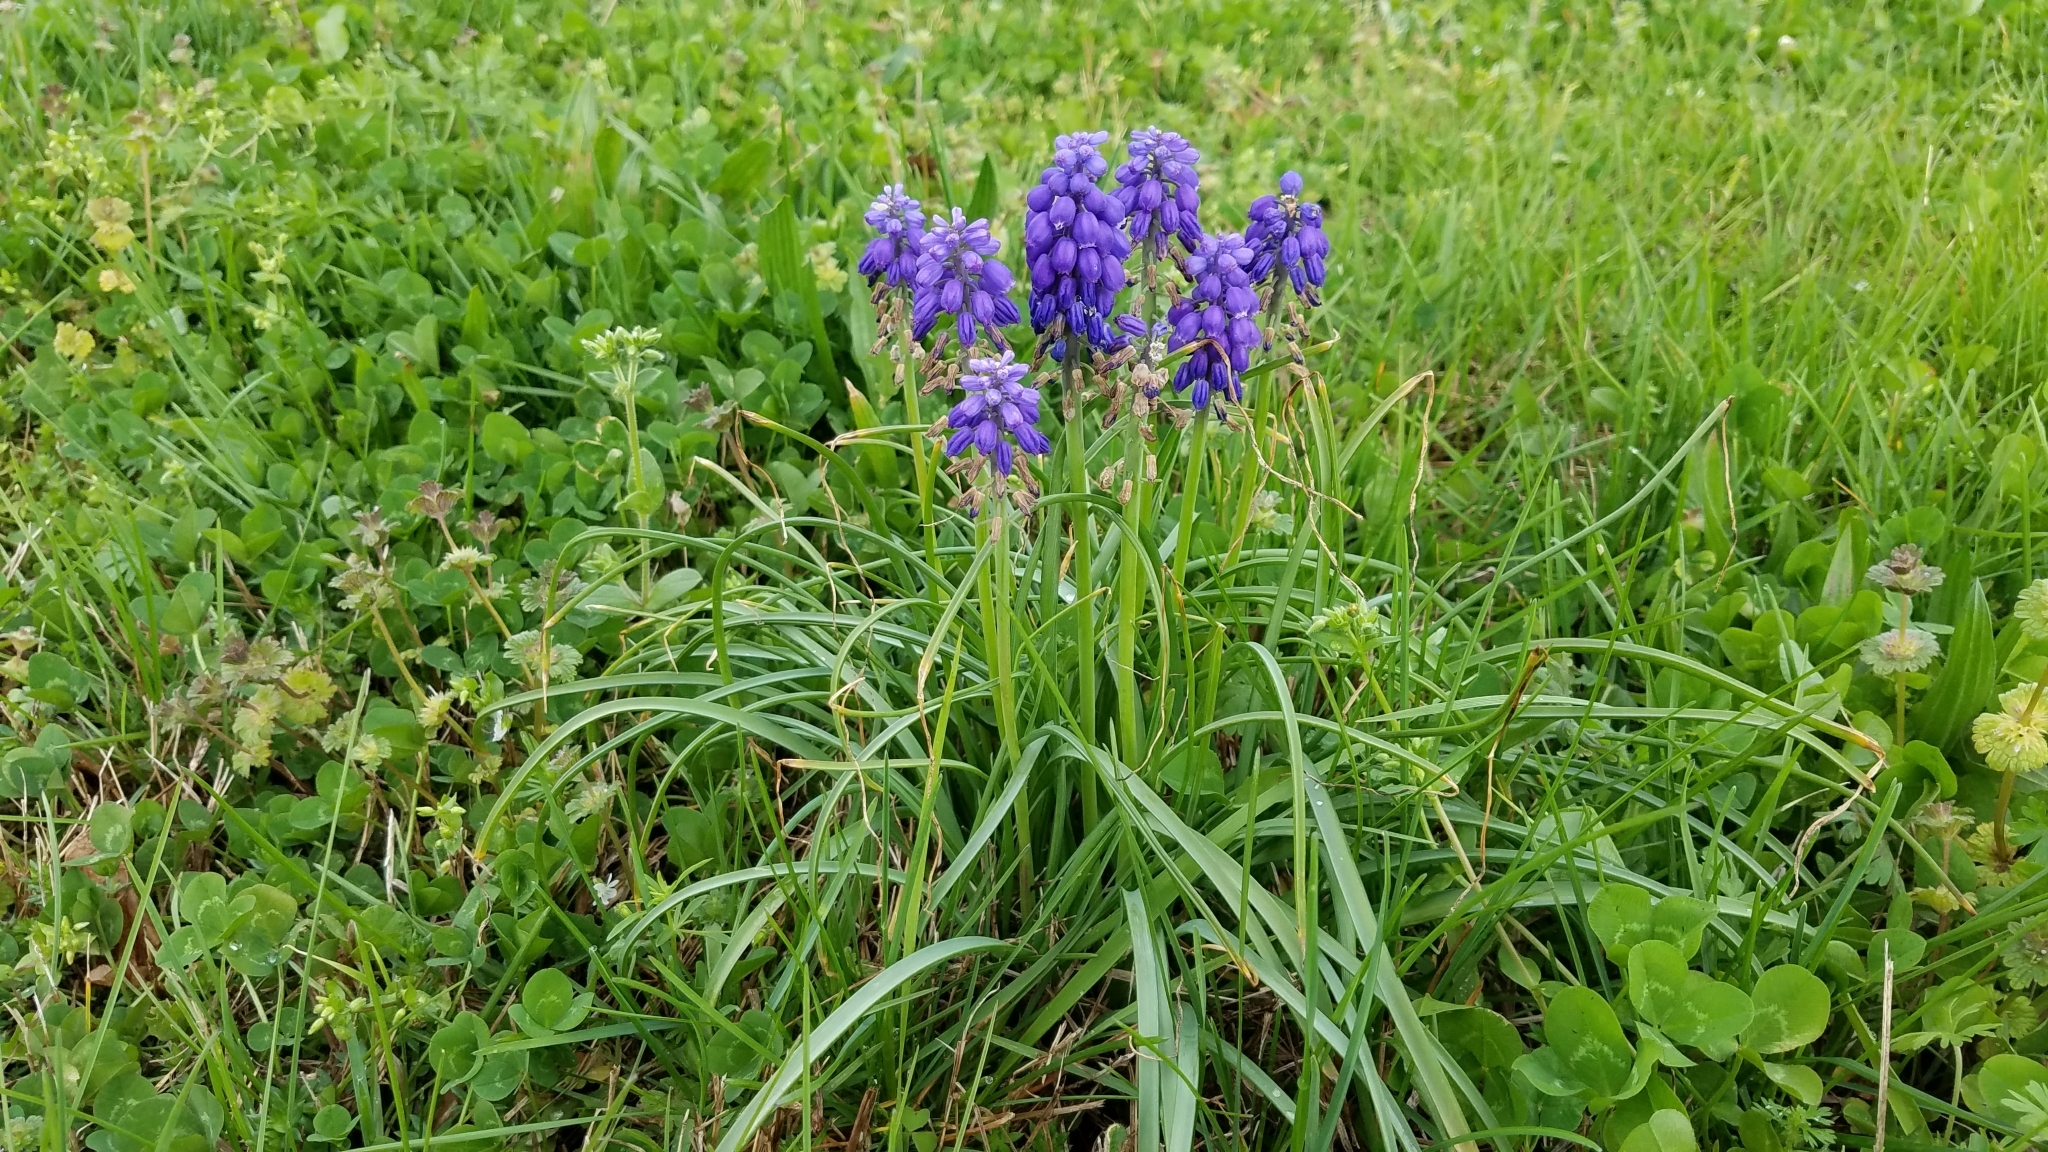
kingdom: Plantae
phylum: Tracheophyta
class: Liliopsida
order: Asparagales
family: Asparagaceae
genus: Muscari
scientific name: Muscari neglectum
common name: Grape-hyacinth
